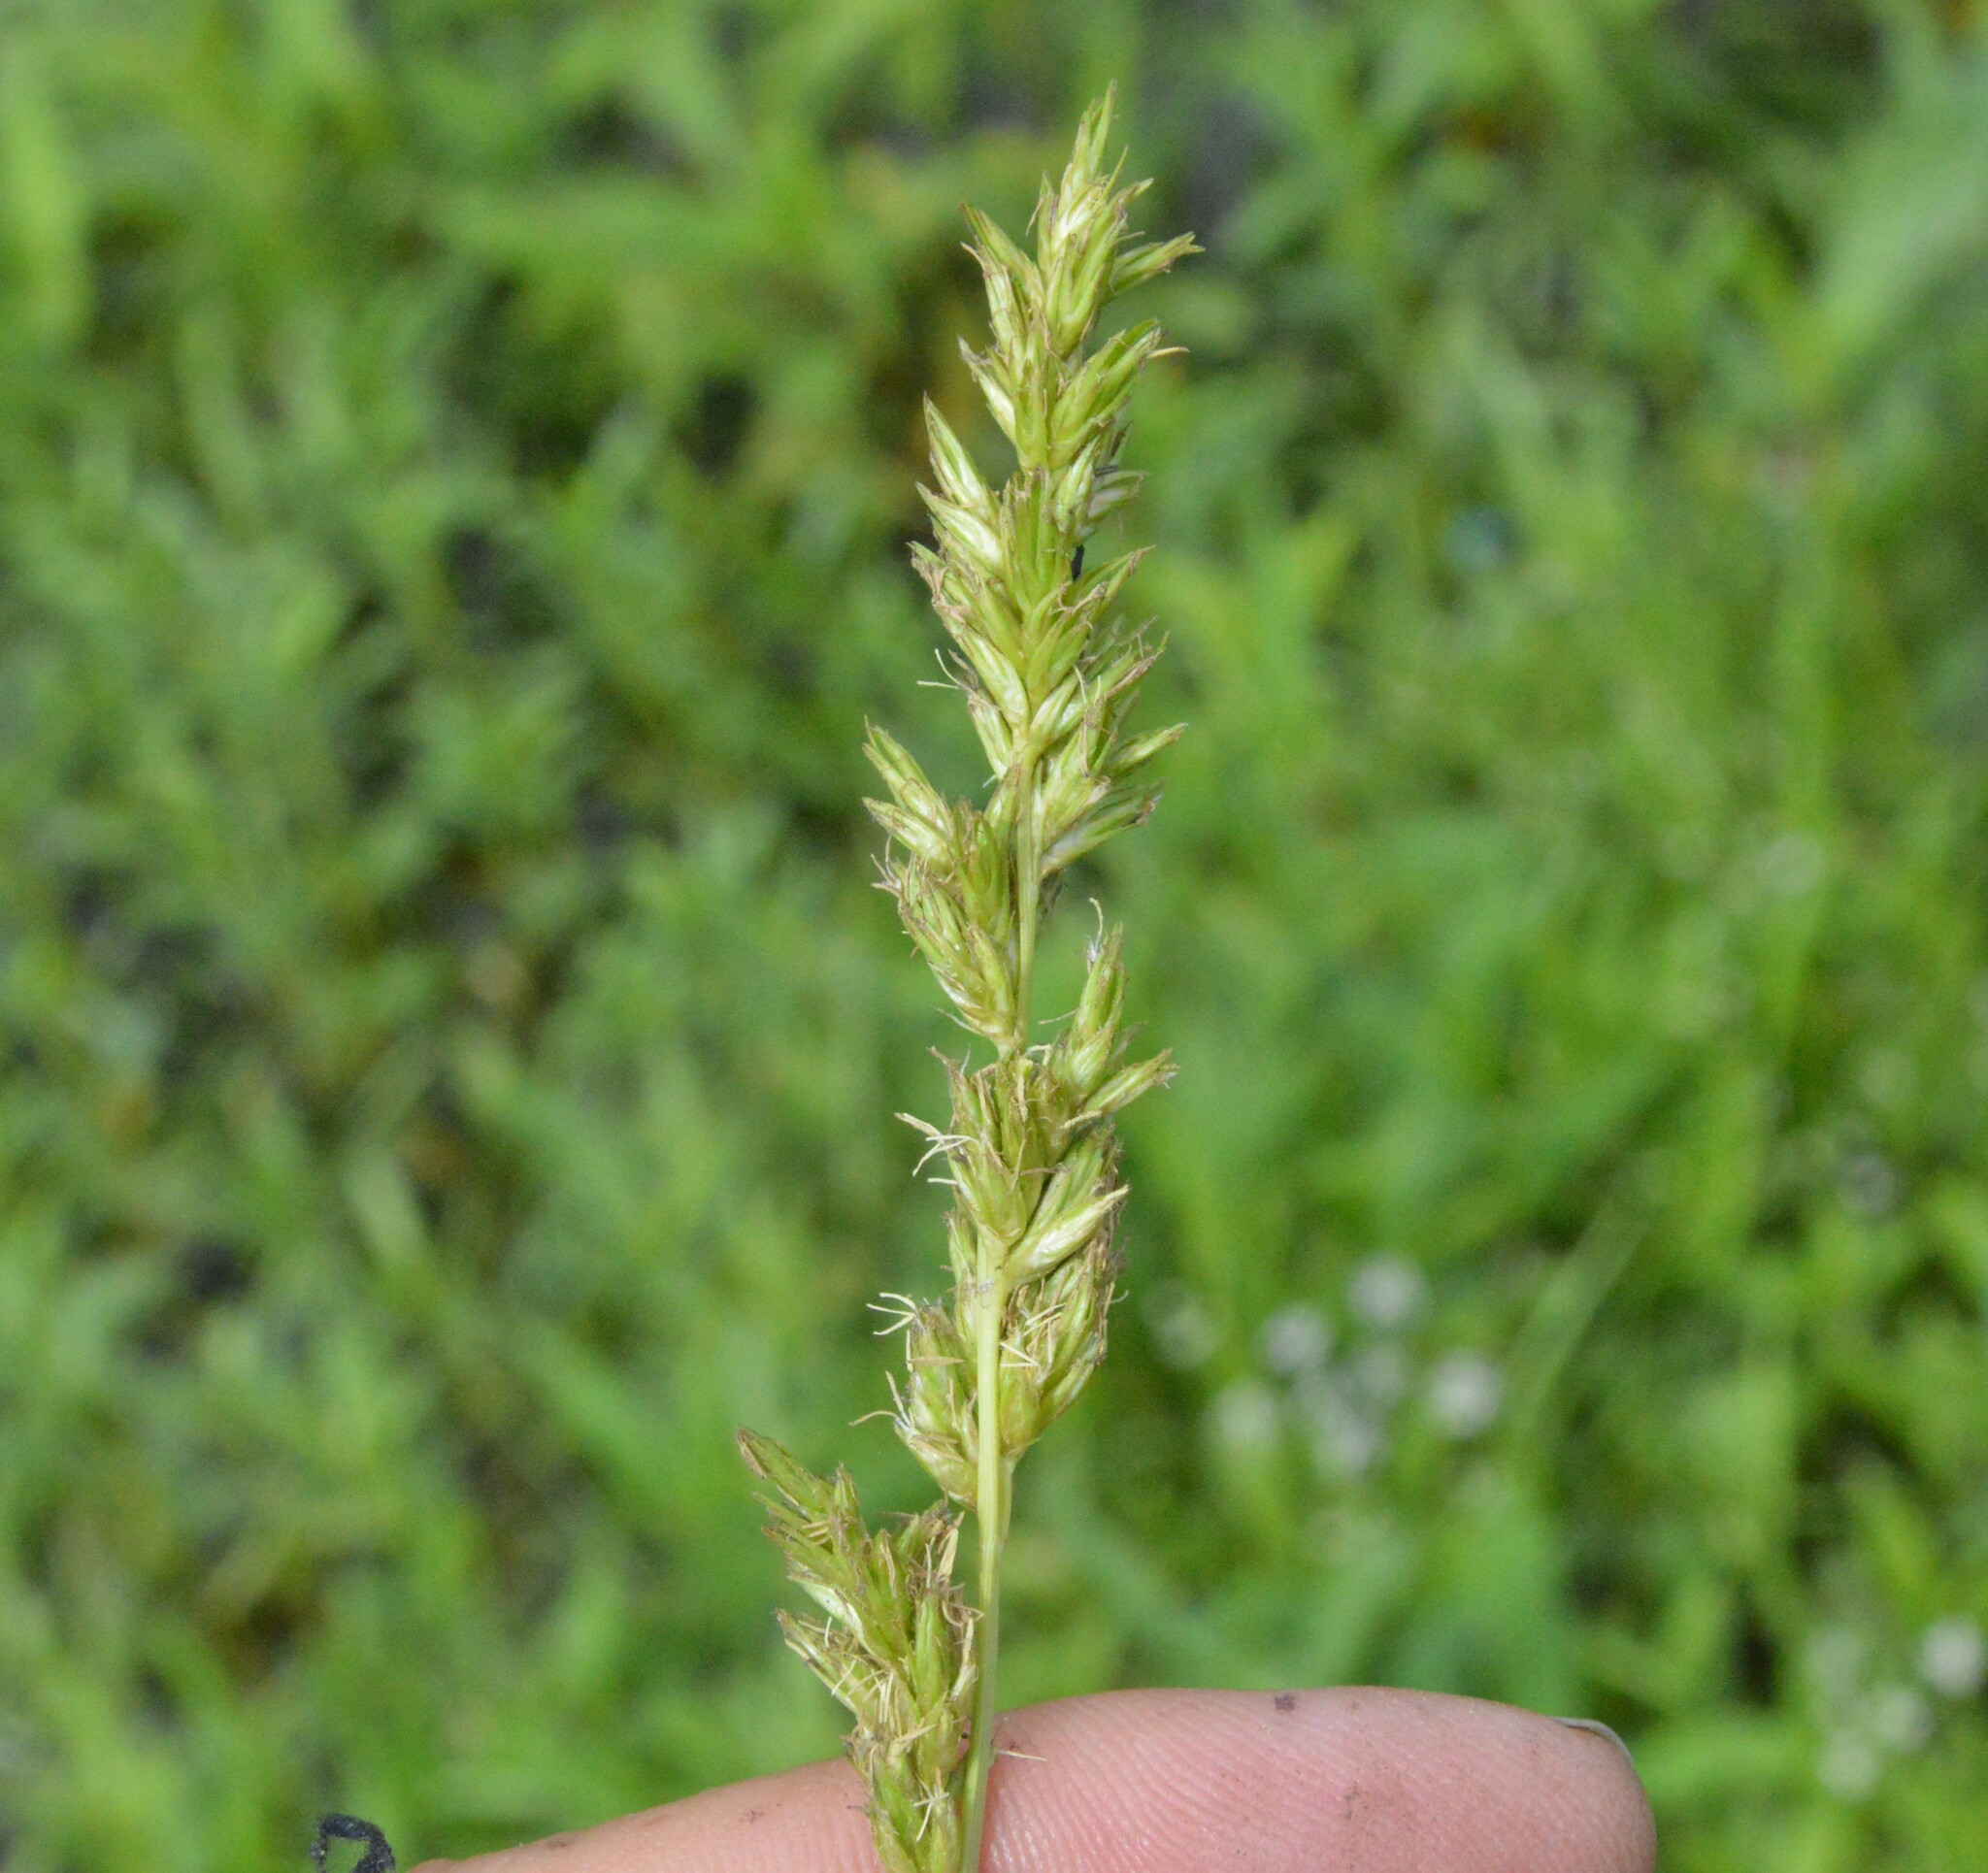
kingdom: Plantae
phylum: Tracheophyta
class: Liliopsida
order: Poales
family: Cyperaceae
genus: Carex
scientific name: Carex crus-corvi
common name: Crow-spur sedge
